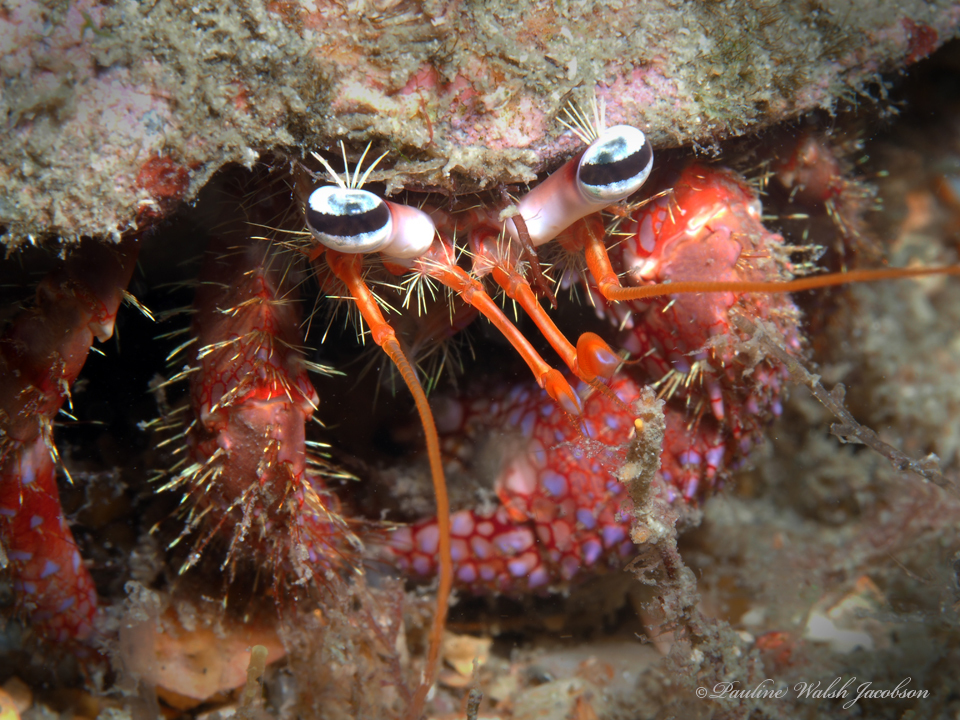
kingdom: Animalia
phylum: Arthropoda
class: Malacostraca
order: Decapoda
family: Diogenidae
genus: Dardanus
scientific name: Dardanus fucosus
